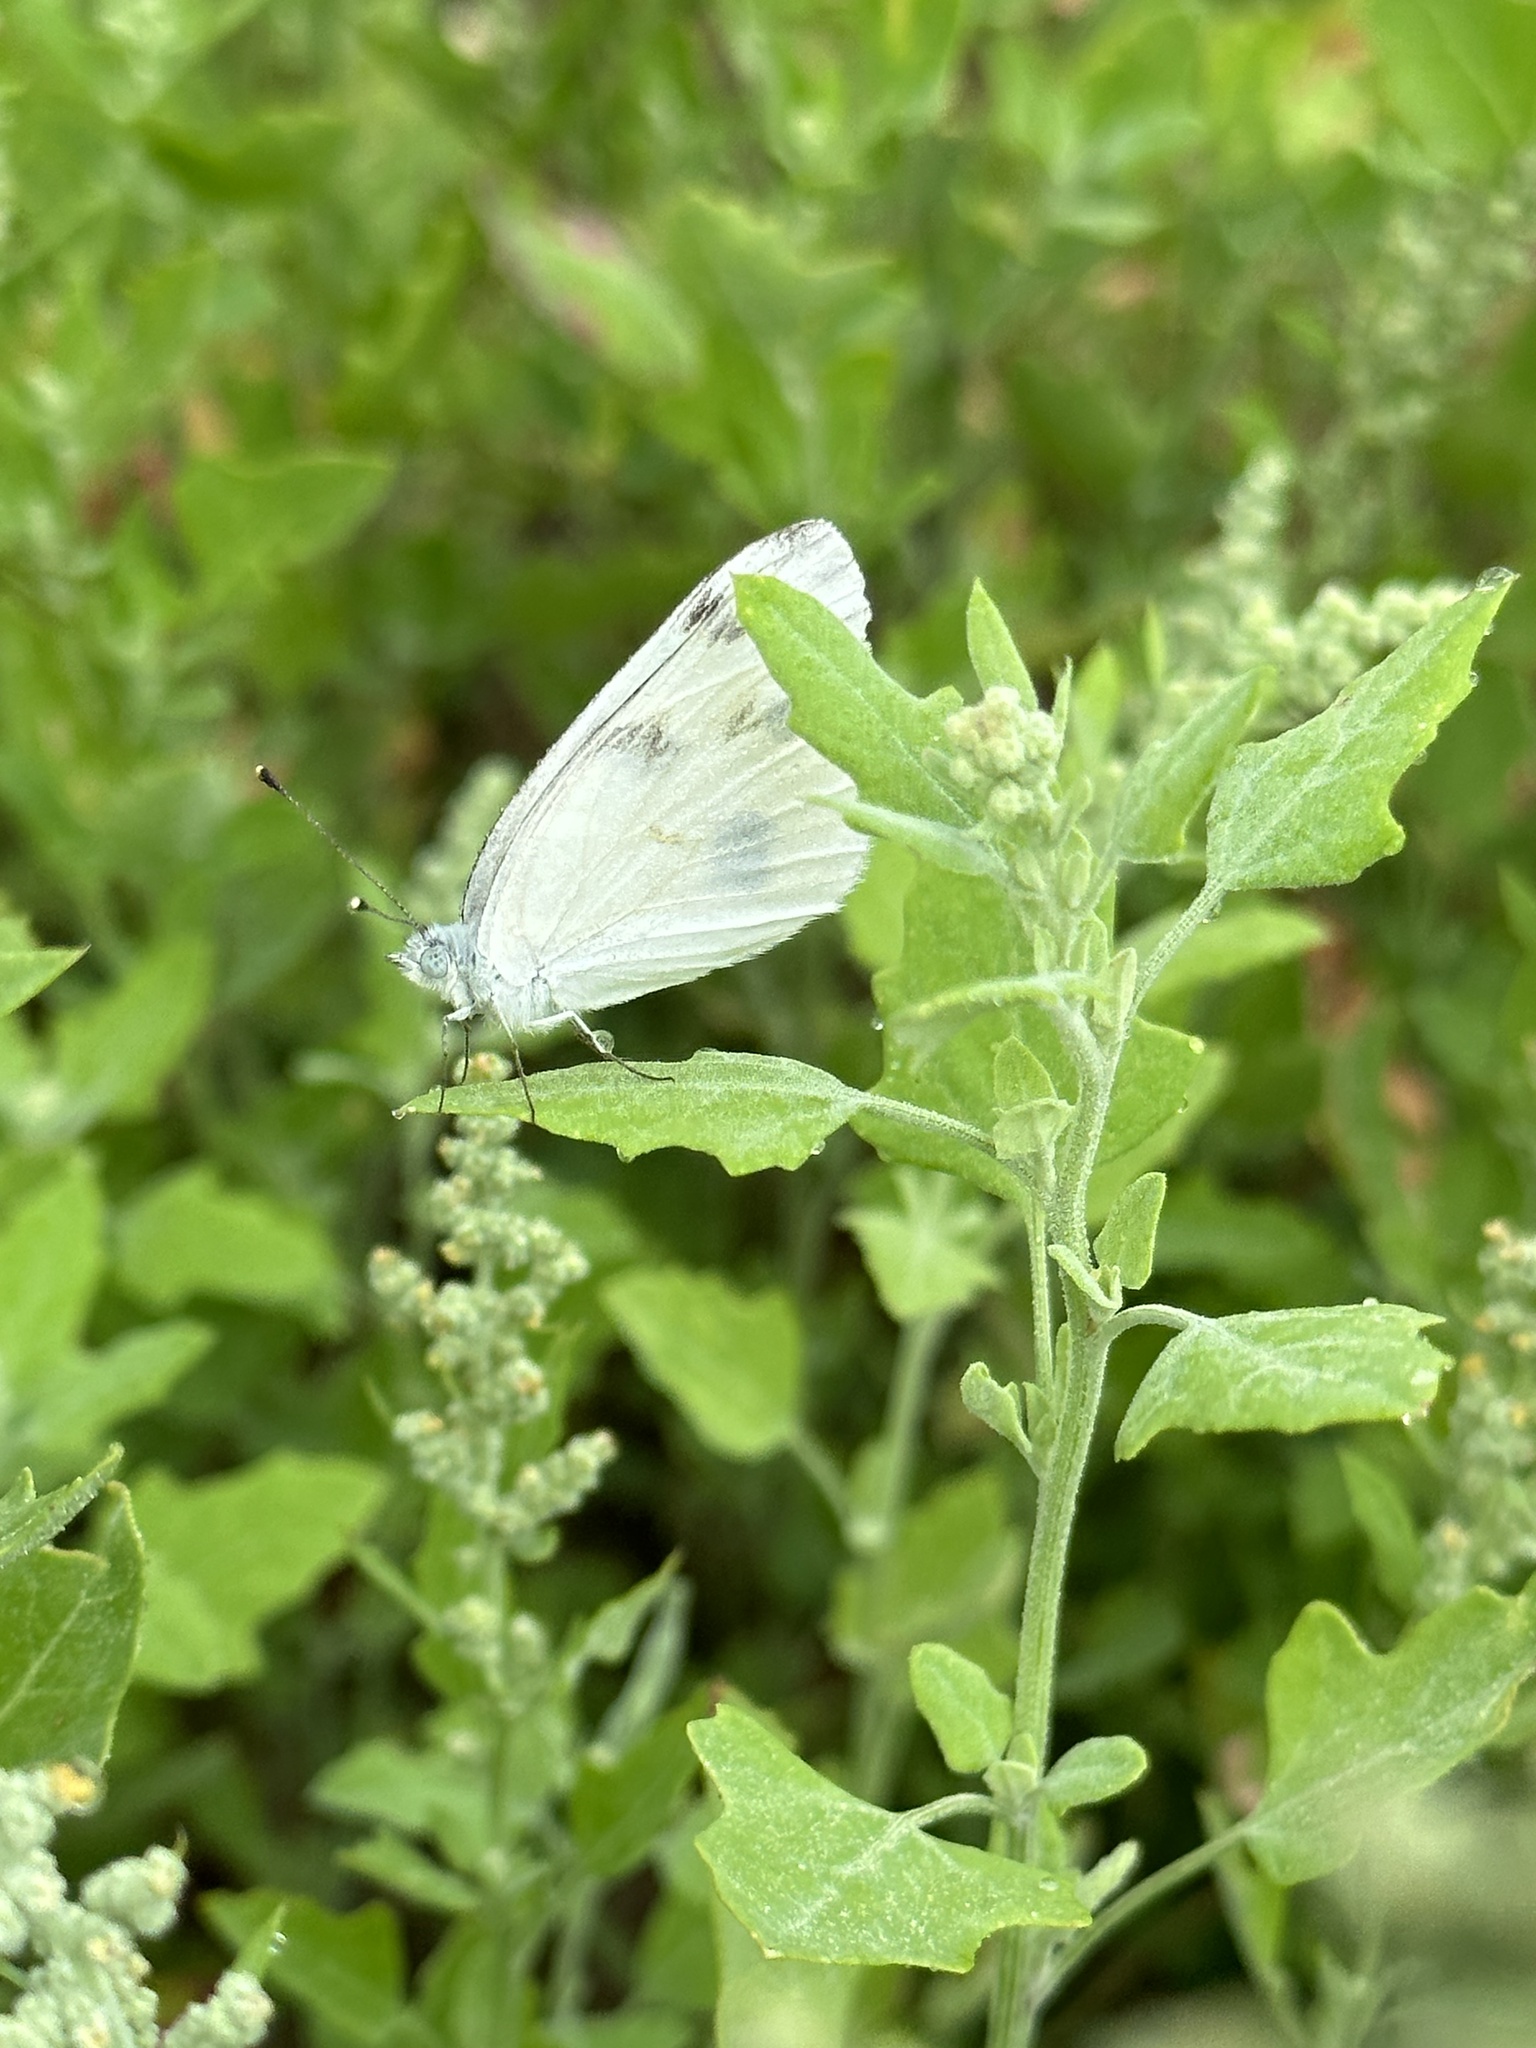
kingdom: Animalia
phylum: Arthropoda
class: Insecta
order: Lepidoptera
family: Pieridae
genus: Pontia
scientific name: Pontia protodice
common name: Checkered white
